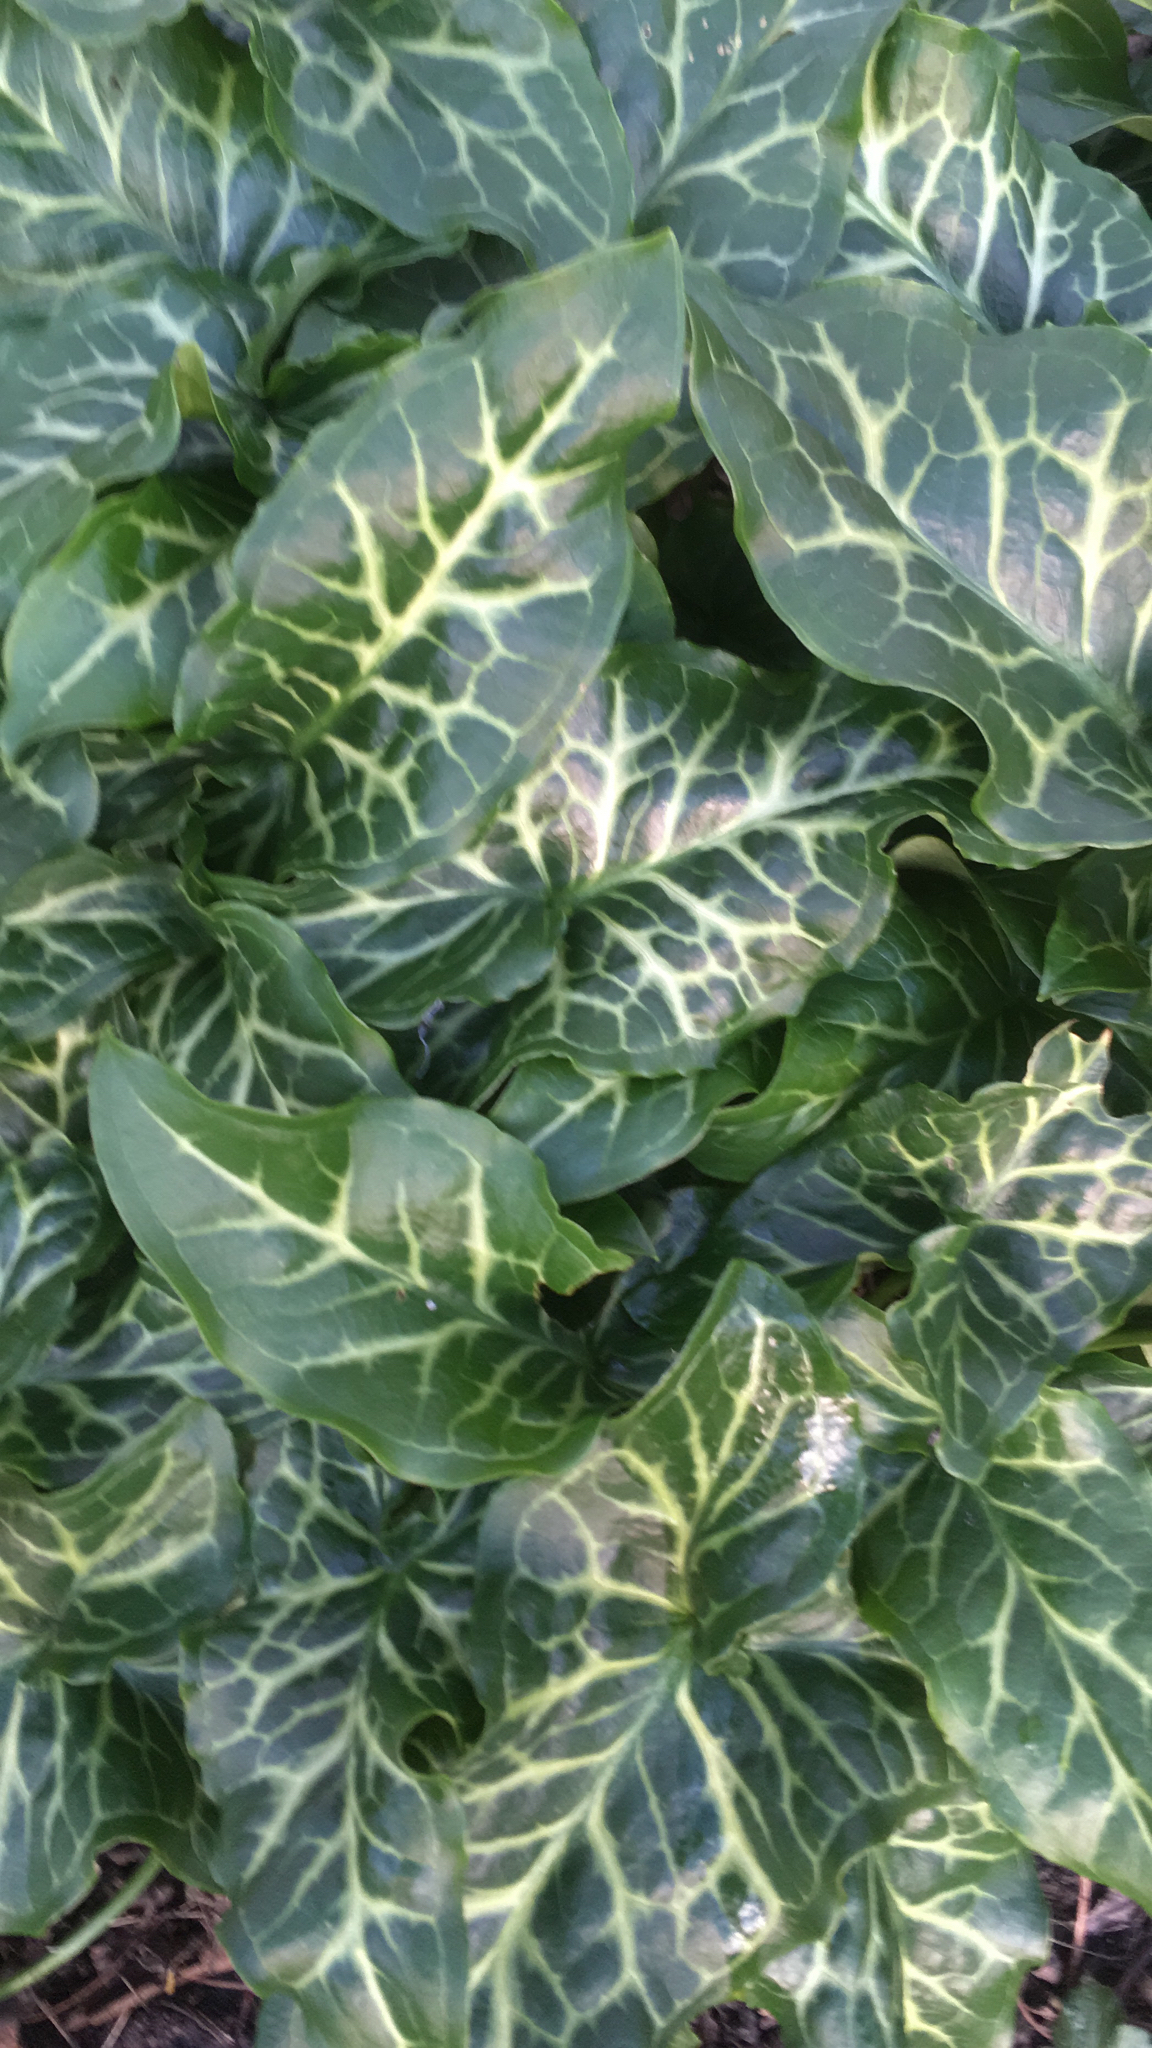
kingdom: Plantae
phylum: Tracheophyta
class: Liliopsida
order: Alismatales
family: Araceae
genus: Arum
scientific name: Arum italicum
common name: Italian lords-and-ladies
